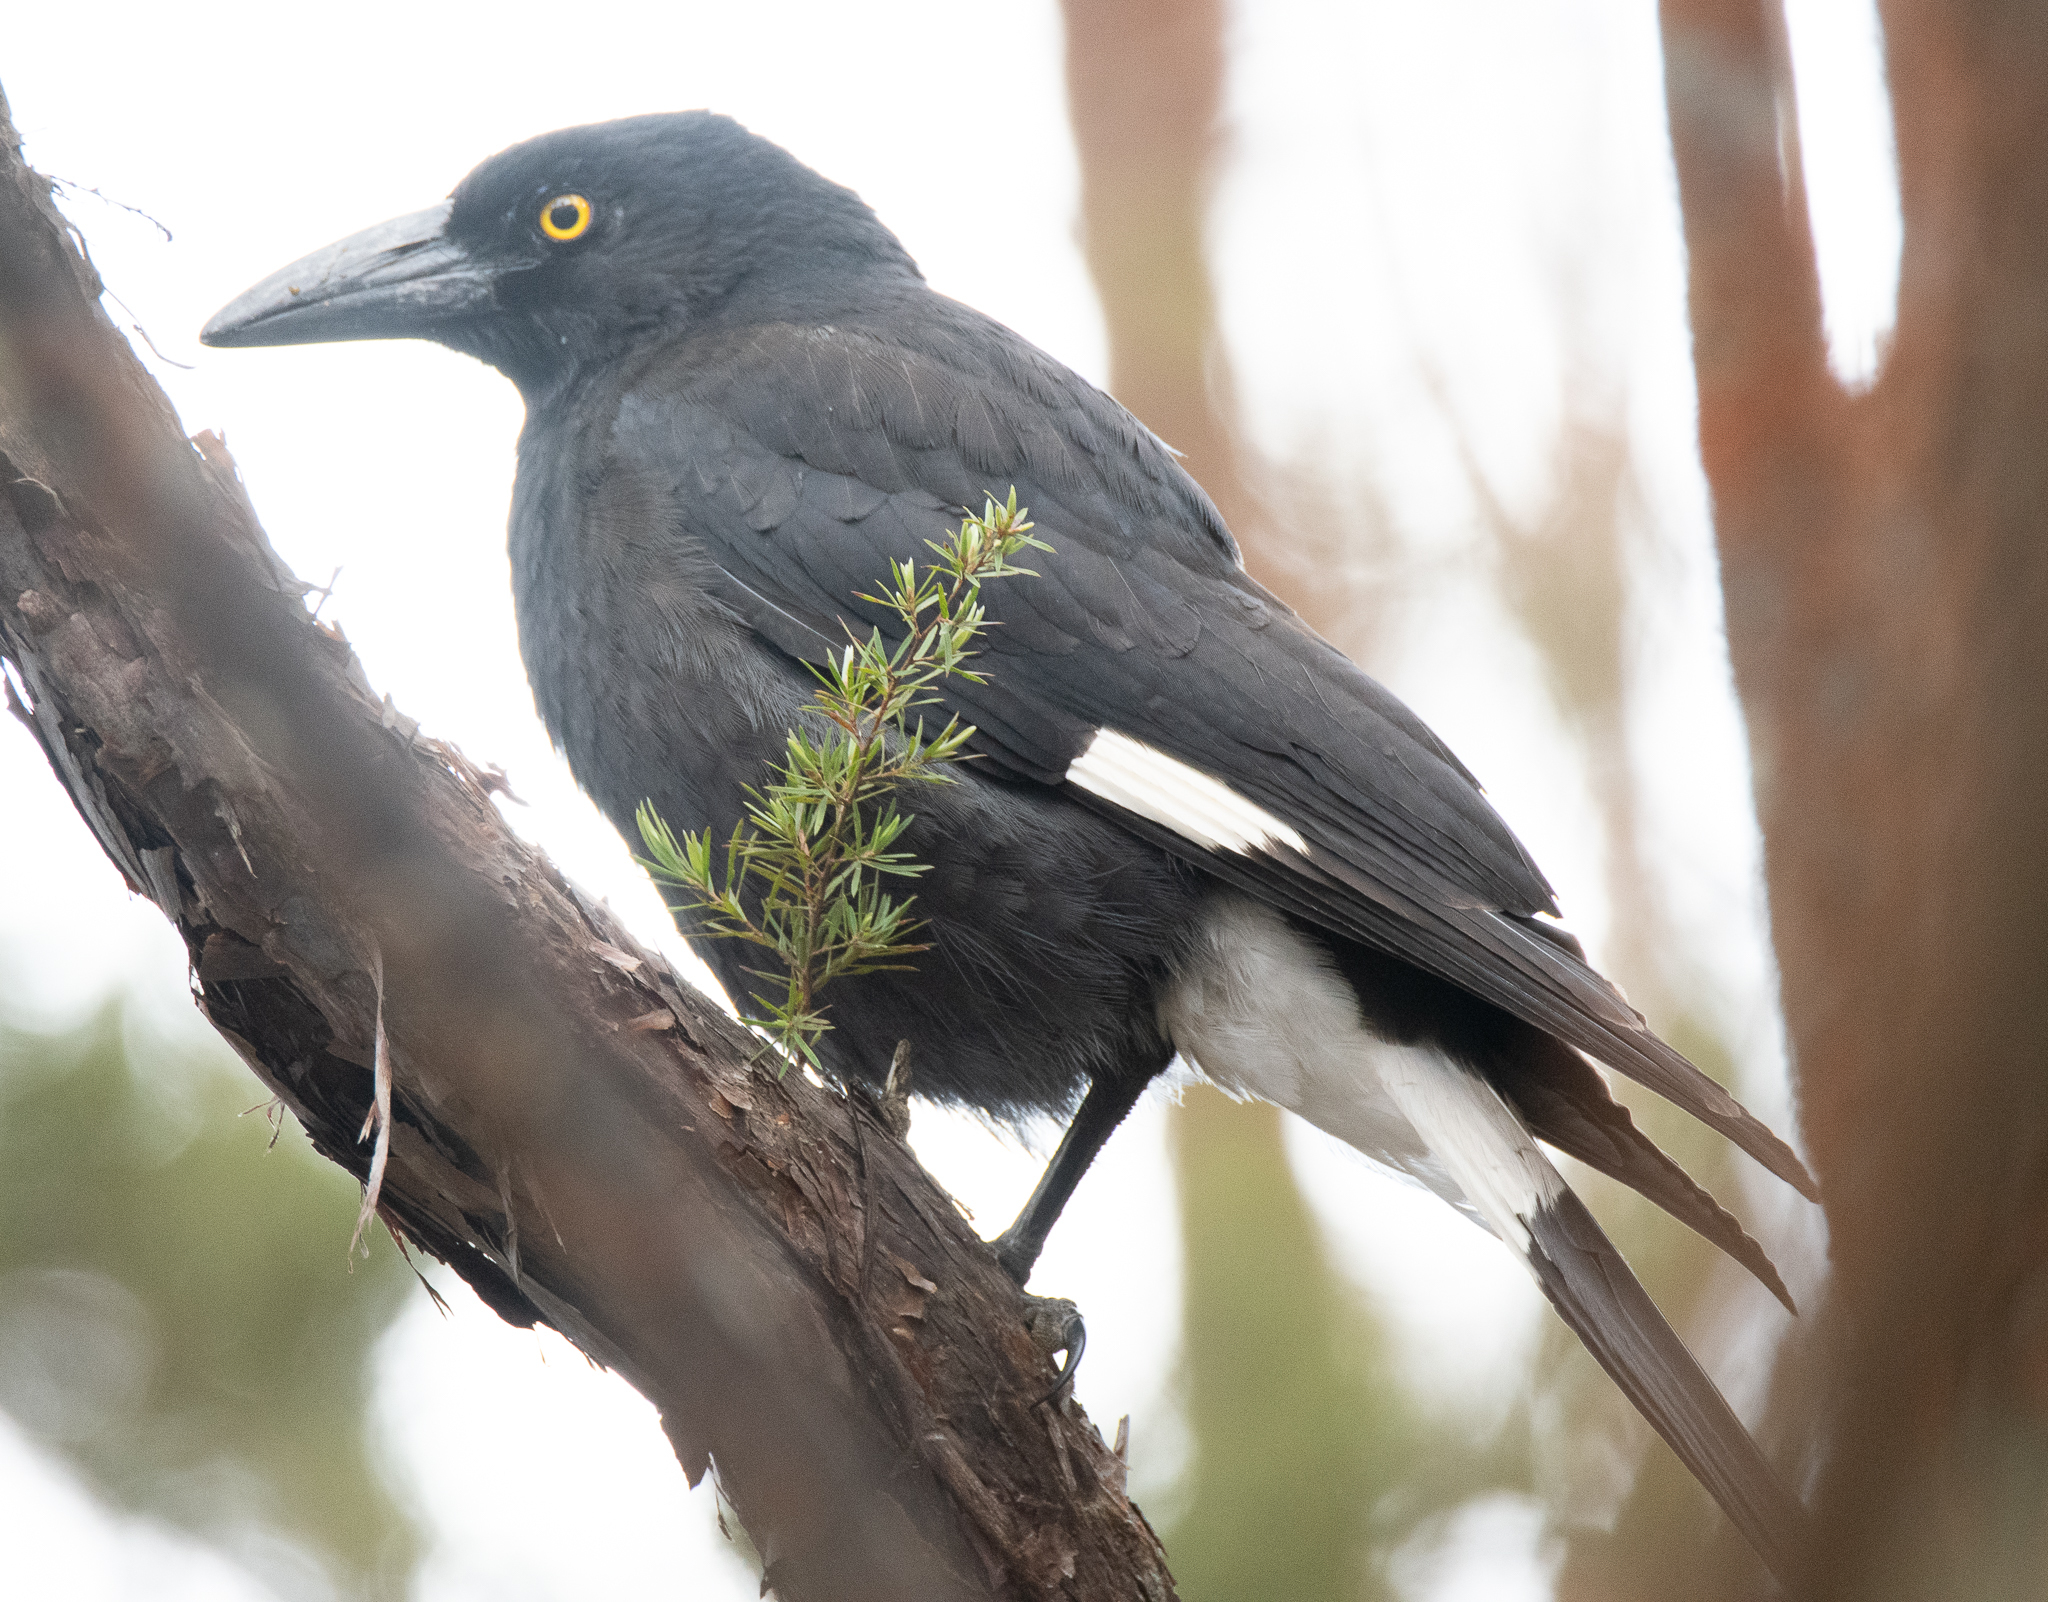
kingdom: Animalia
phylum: Chordata
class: Aves
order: Passeriformes
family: Cracticidae
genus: Strepera
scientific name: Strepera graculina
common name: Pied currawong
